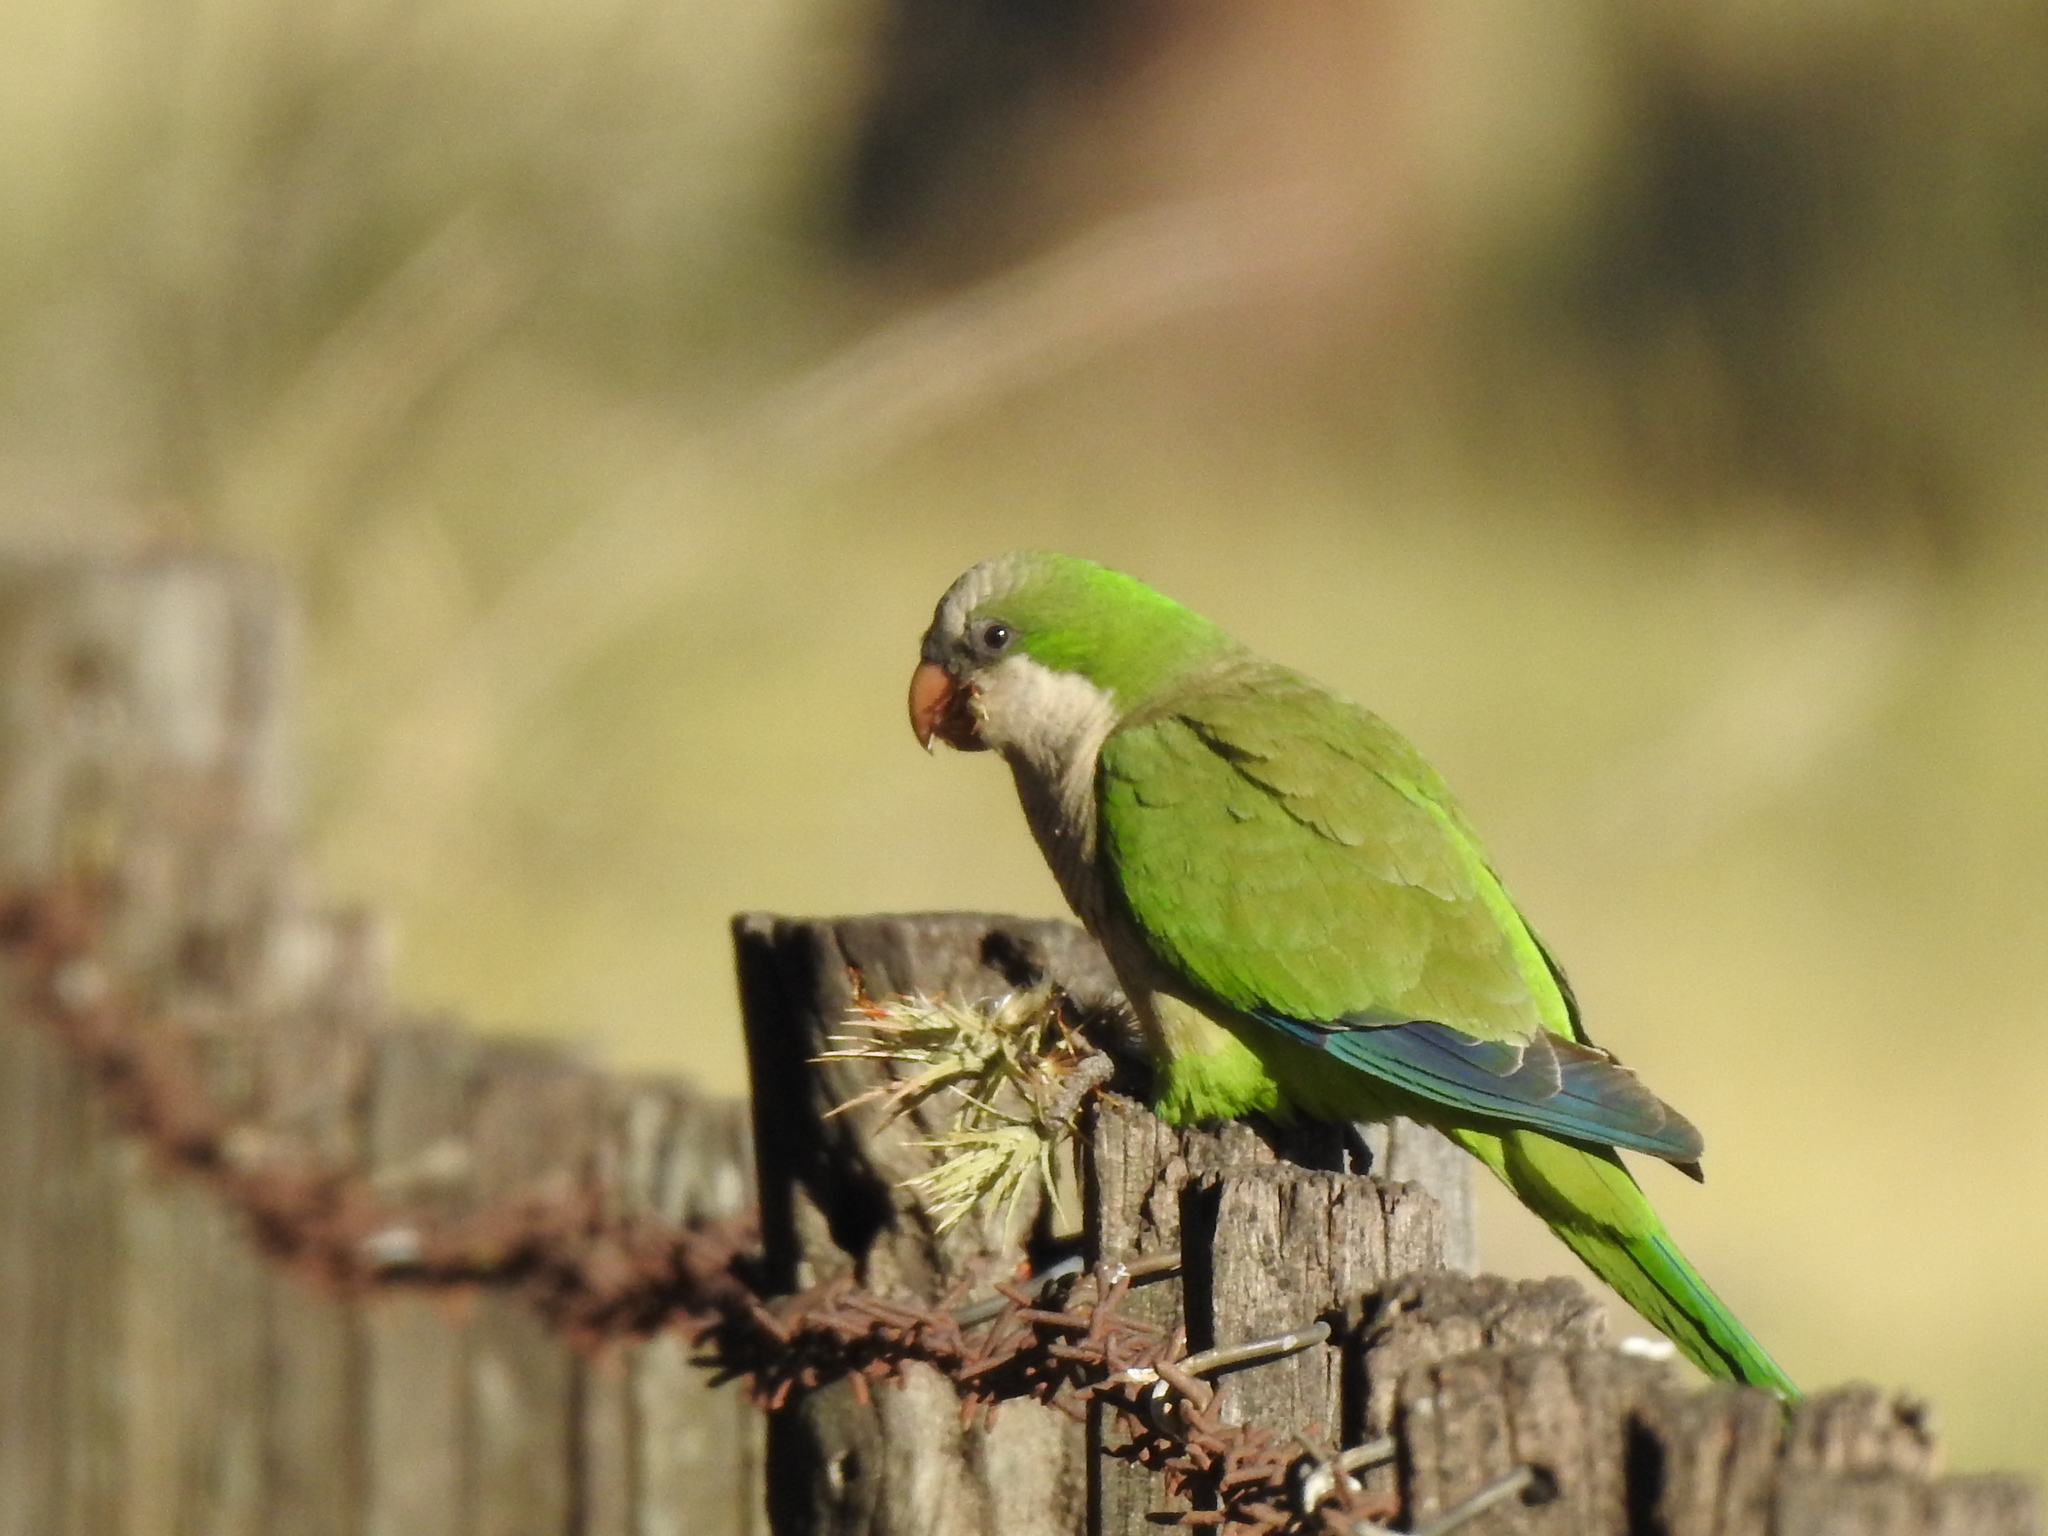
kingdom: Animalia
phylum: Chordata
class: Aves
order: Psittaciformes
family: Psittacidae
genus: Myiopsitta
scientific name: Myiopsitta monachus
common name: Monk parakeet
